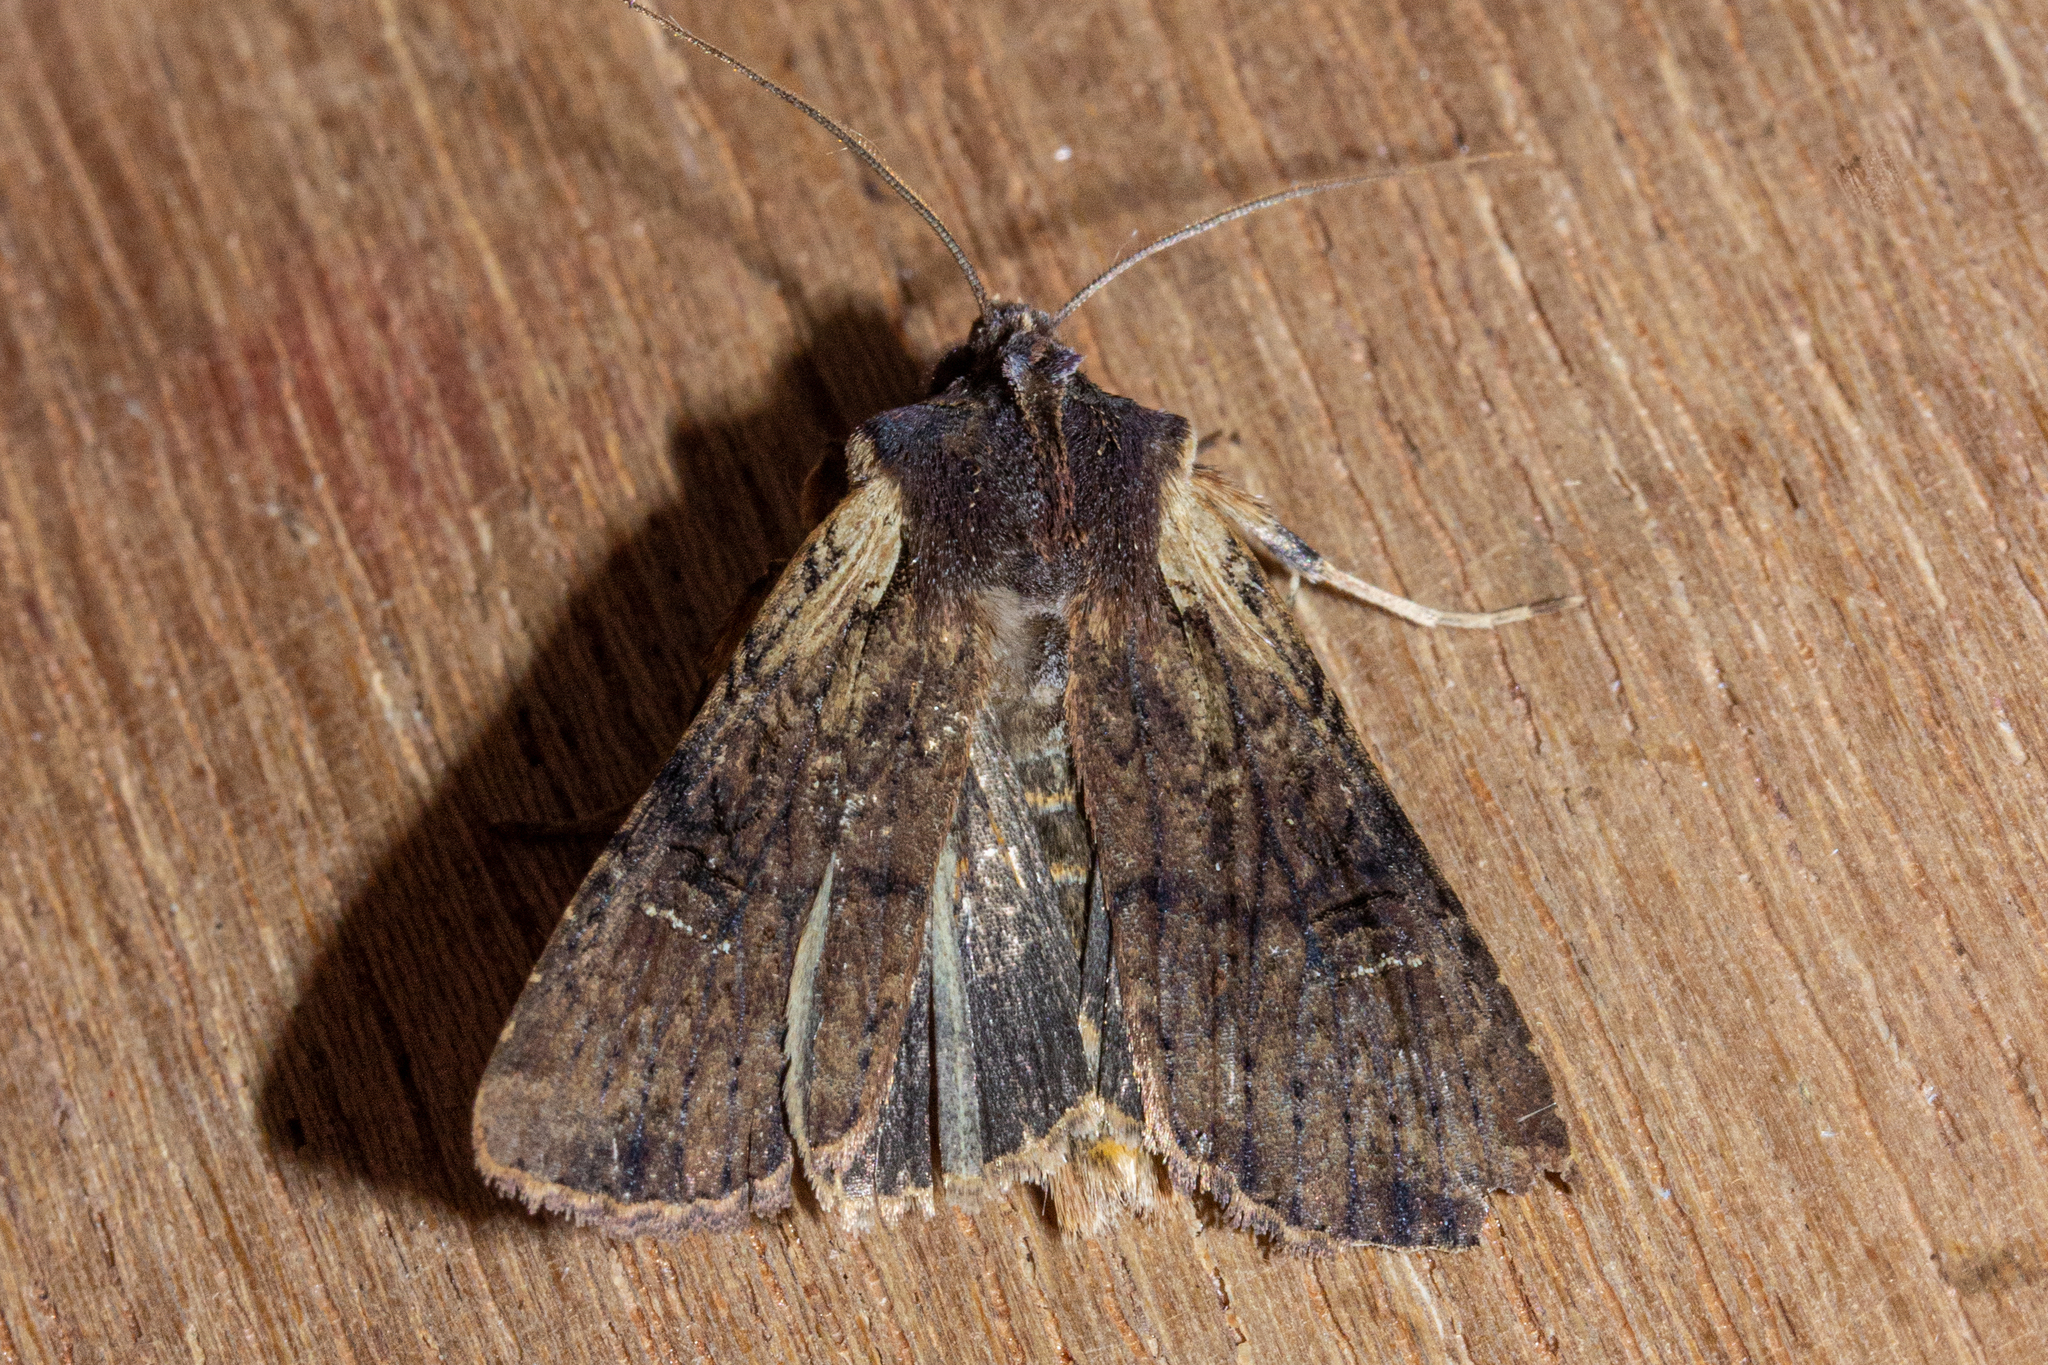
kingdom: Animalia
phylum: Arthropoda
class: Insecta
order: Lepidoptera
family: Noctuidae
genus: Ichneutica
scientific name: Ichneutica omoplaca
